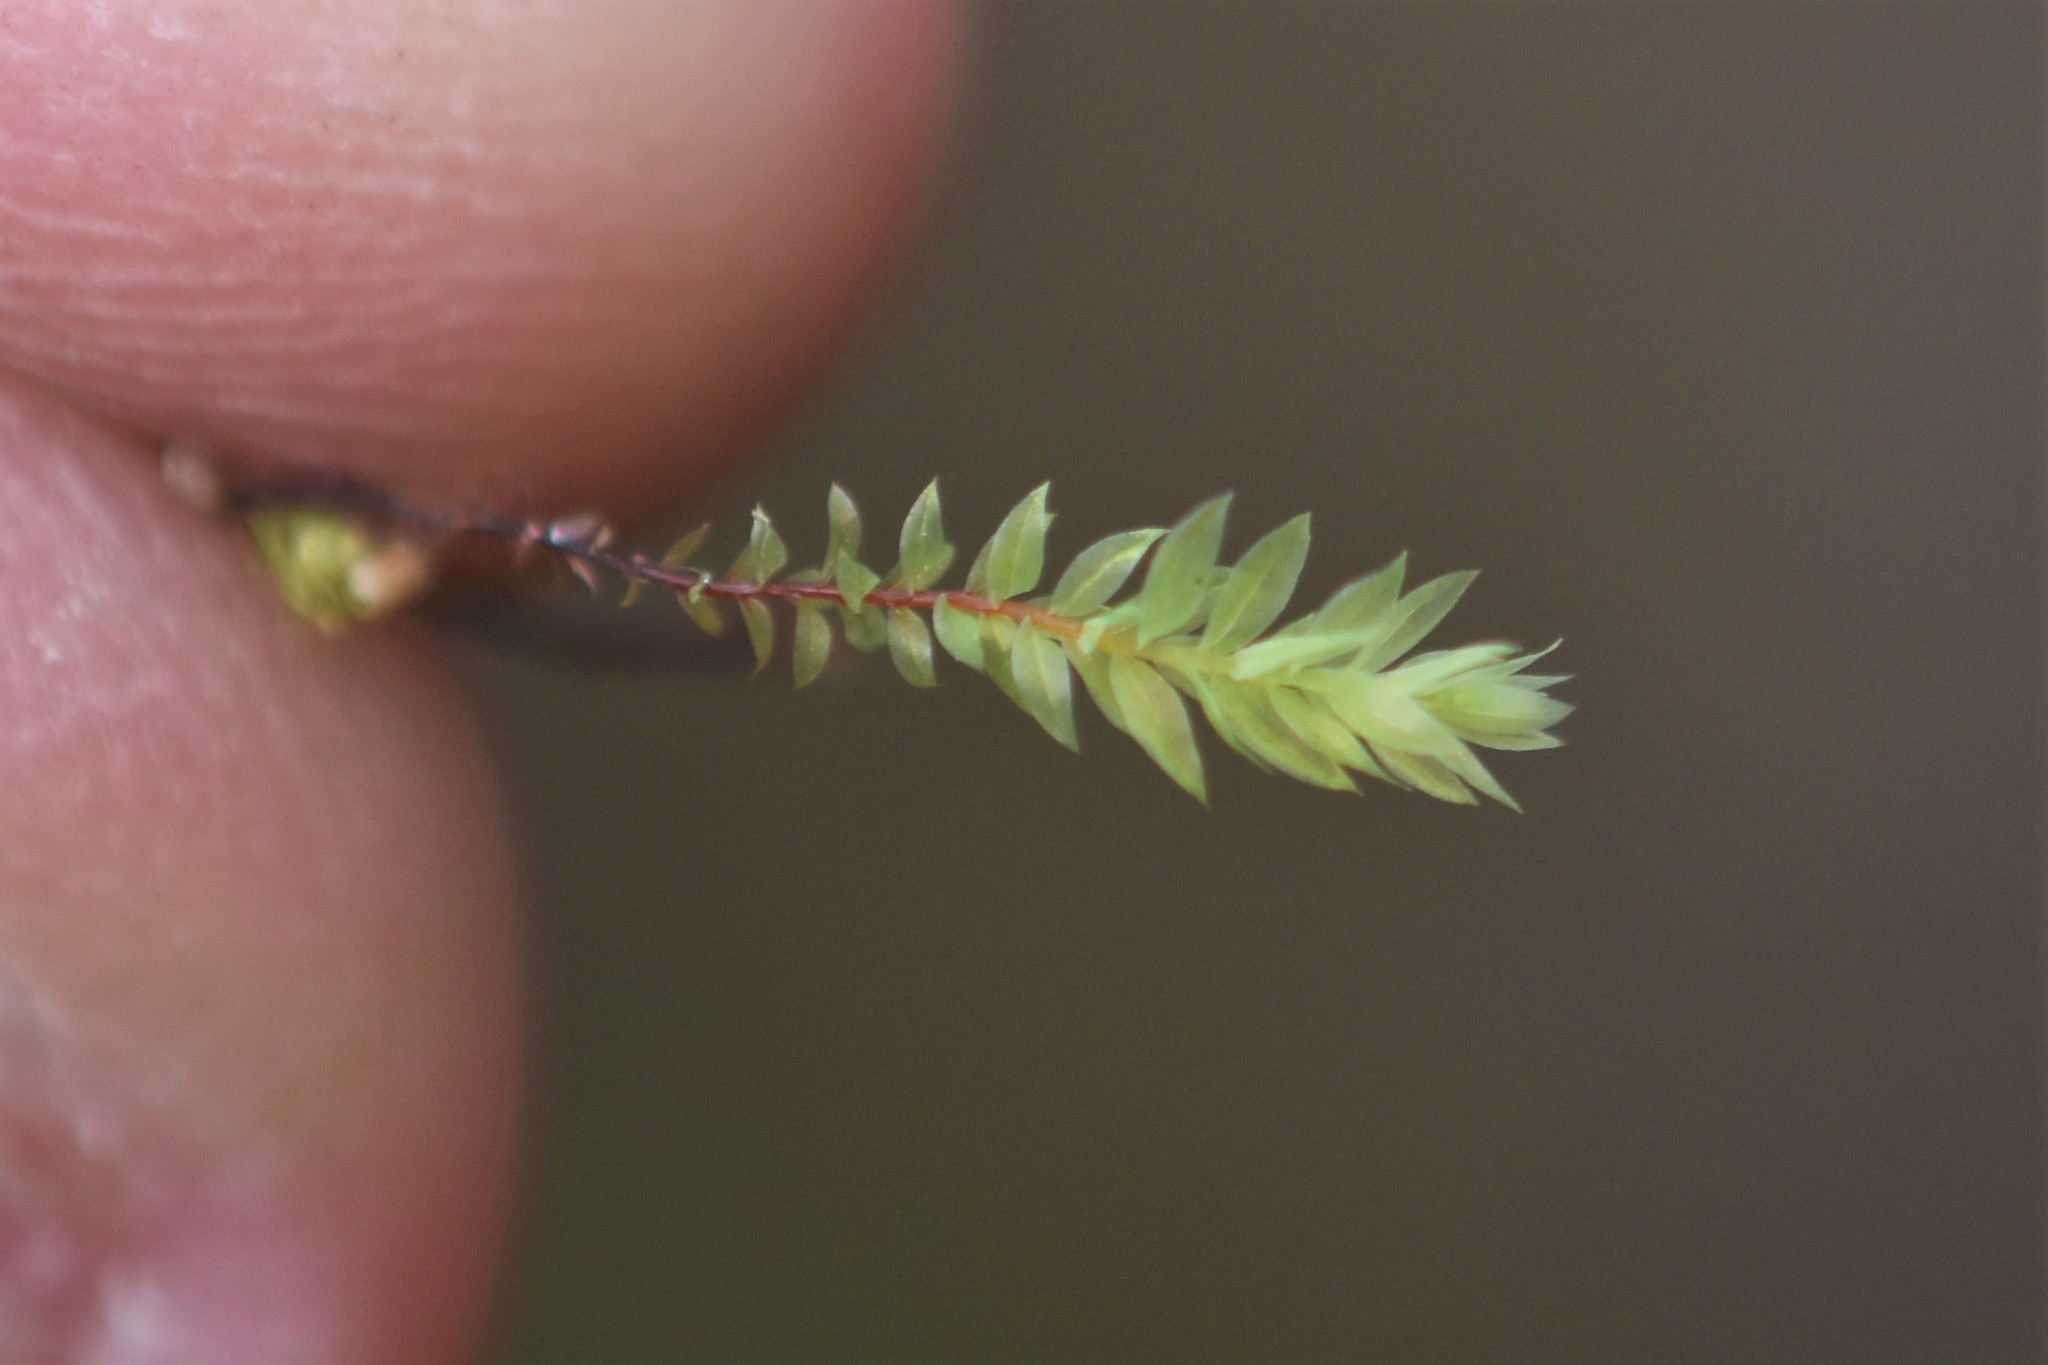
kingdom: Plantae
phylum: Bryophyta
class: Bryopsida
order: Bryales
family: Mniaceae
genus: Pohlia
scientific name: Pohlia cruda
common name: Opal nodding moss
